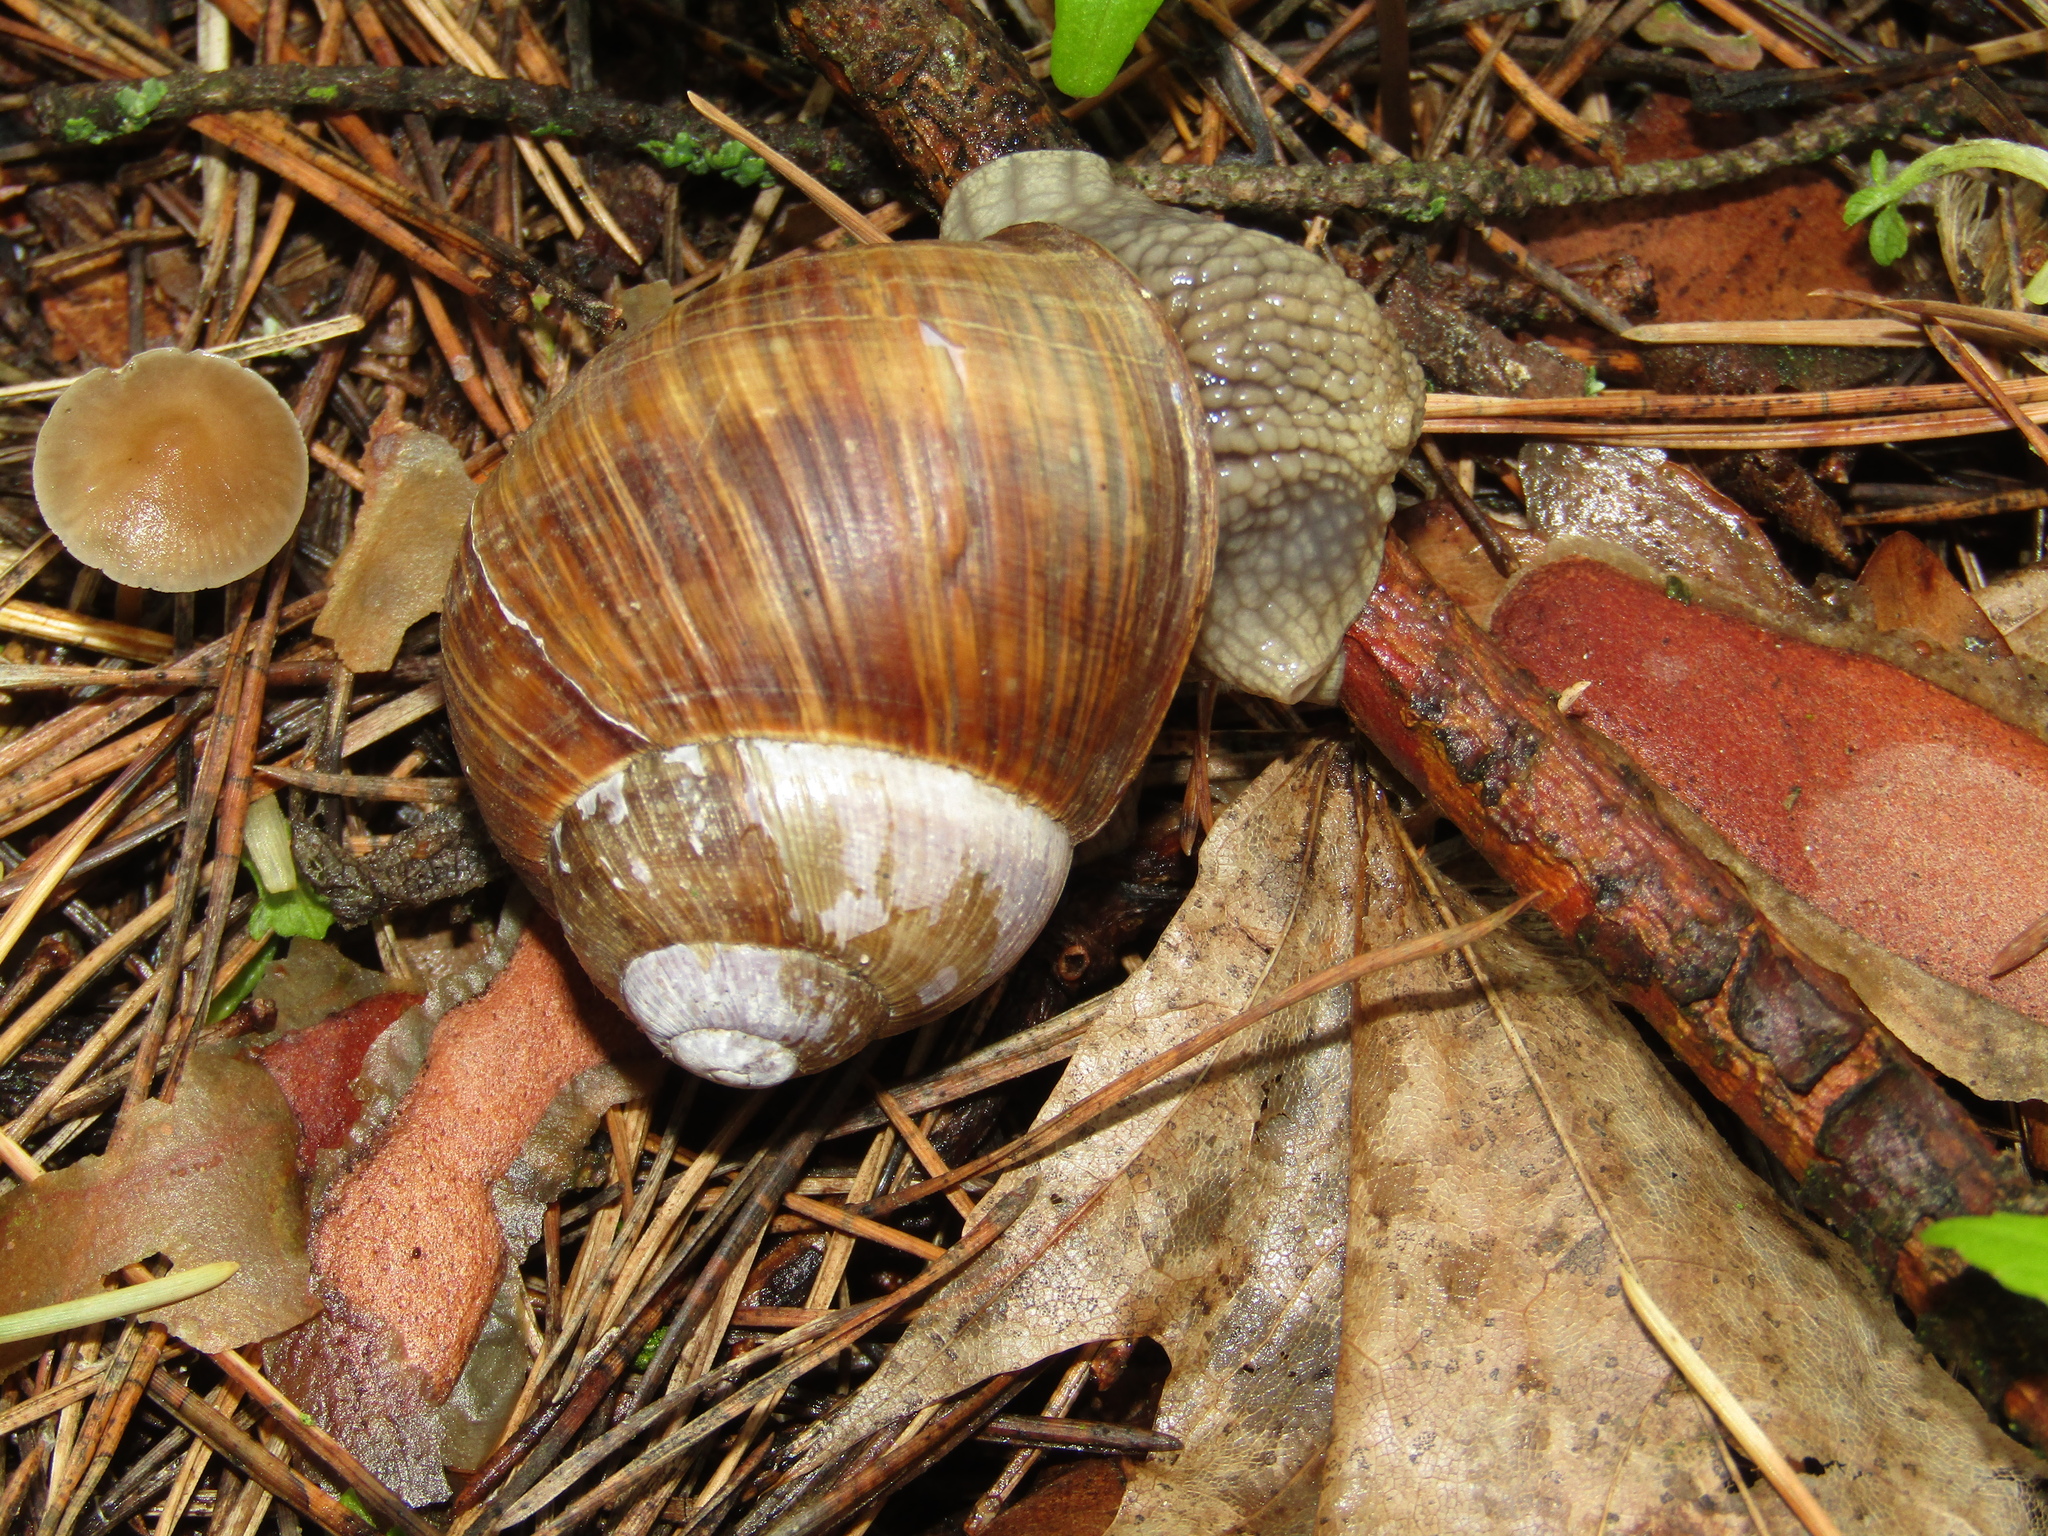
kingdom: Animalia
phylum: Mollusca
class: Gastropoda
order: Stylommatophora
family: Helicidae
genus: Helix
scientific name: Helix pomatia
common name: Roman snail
